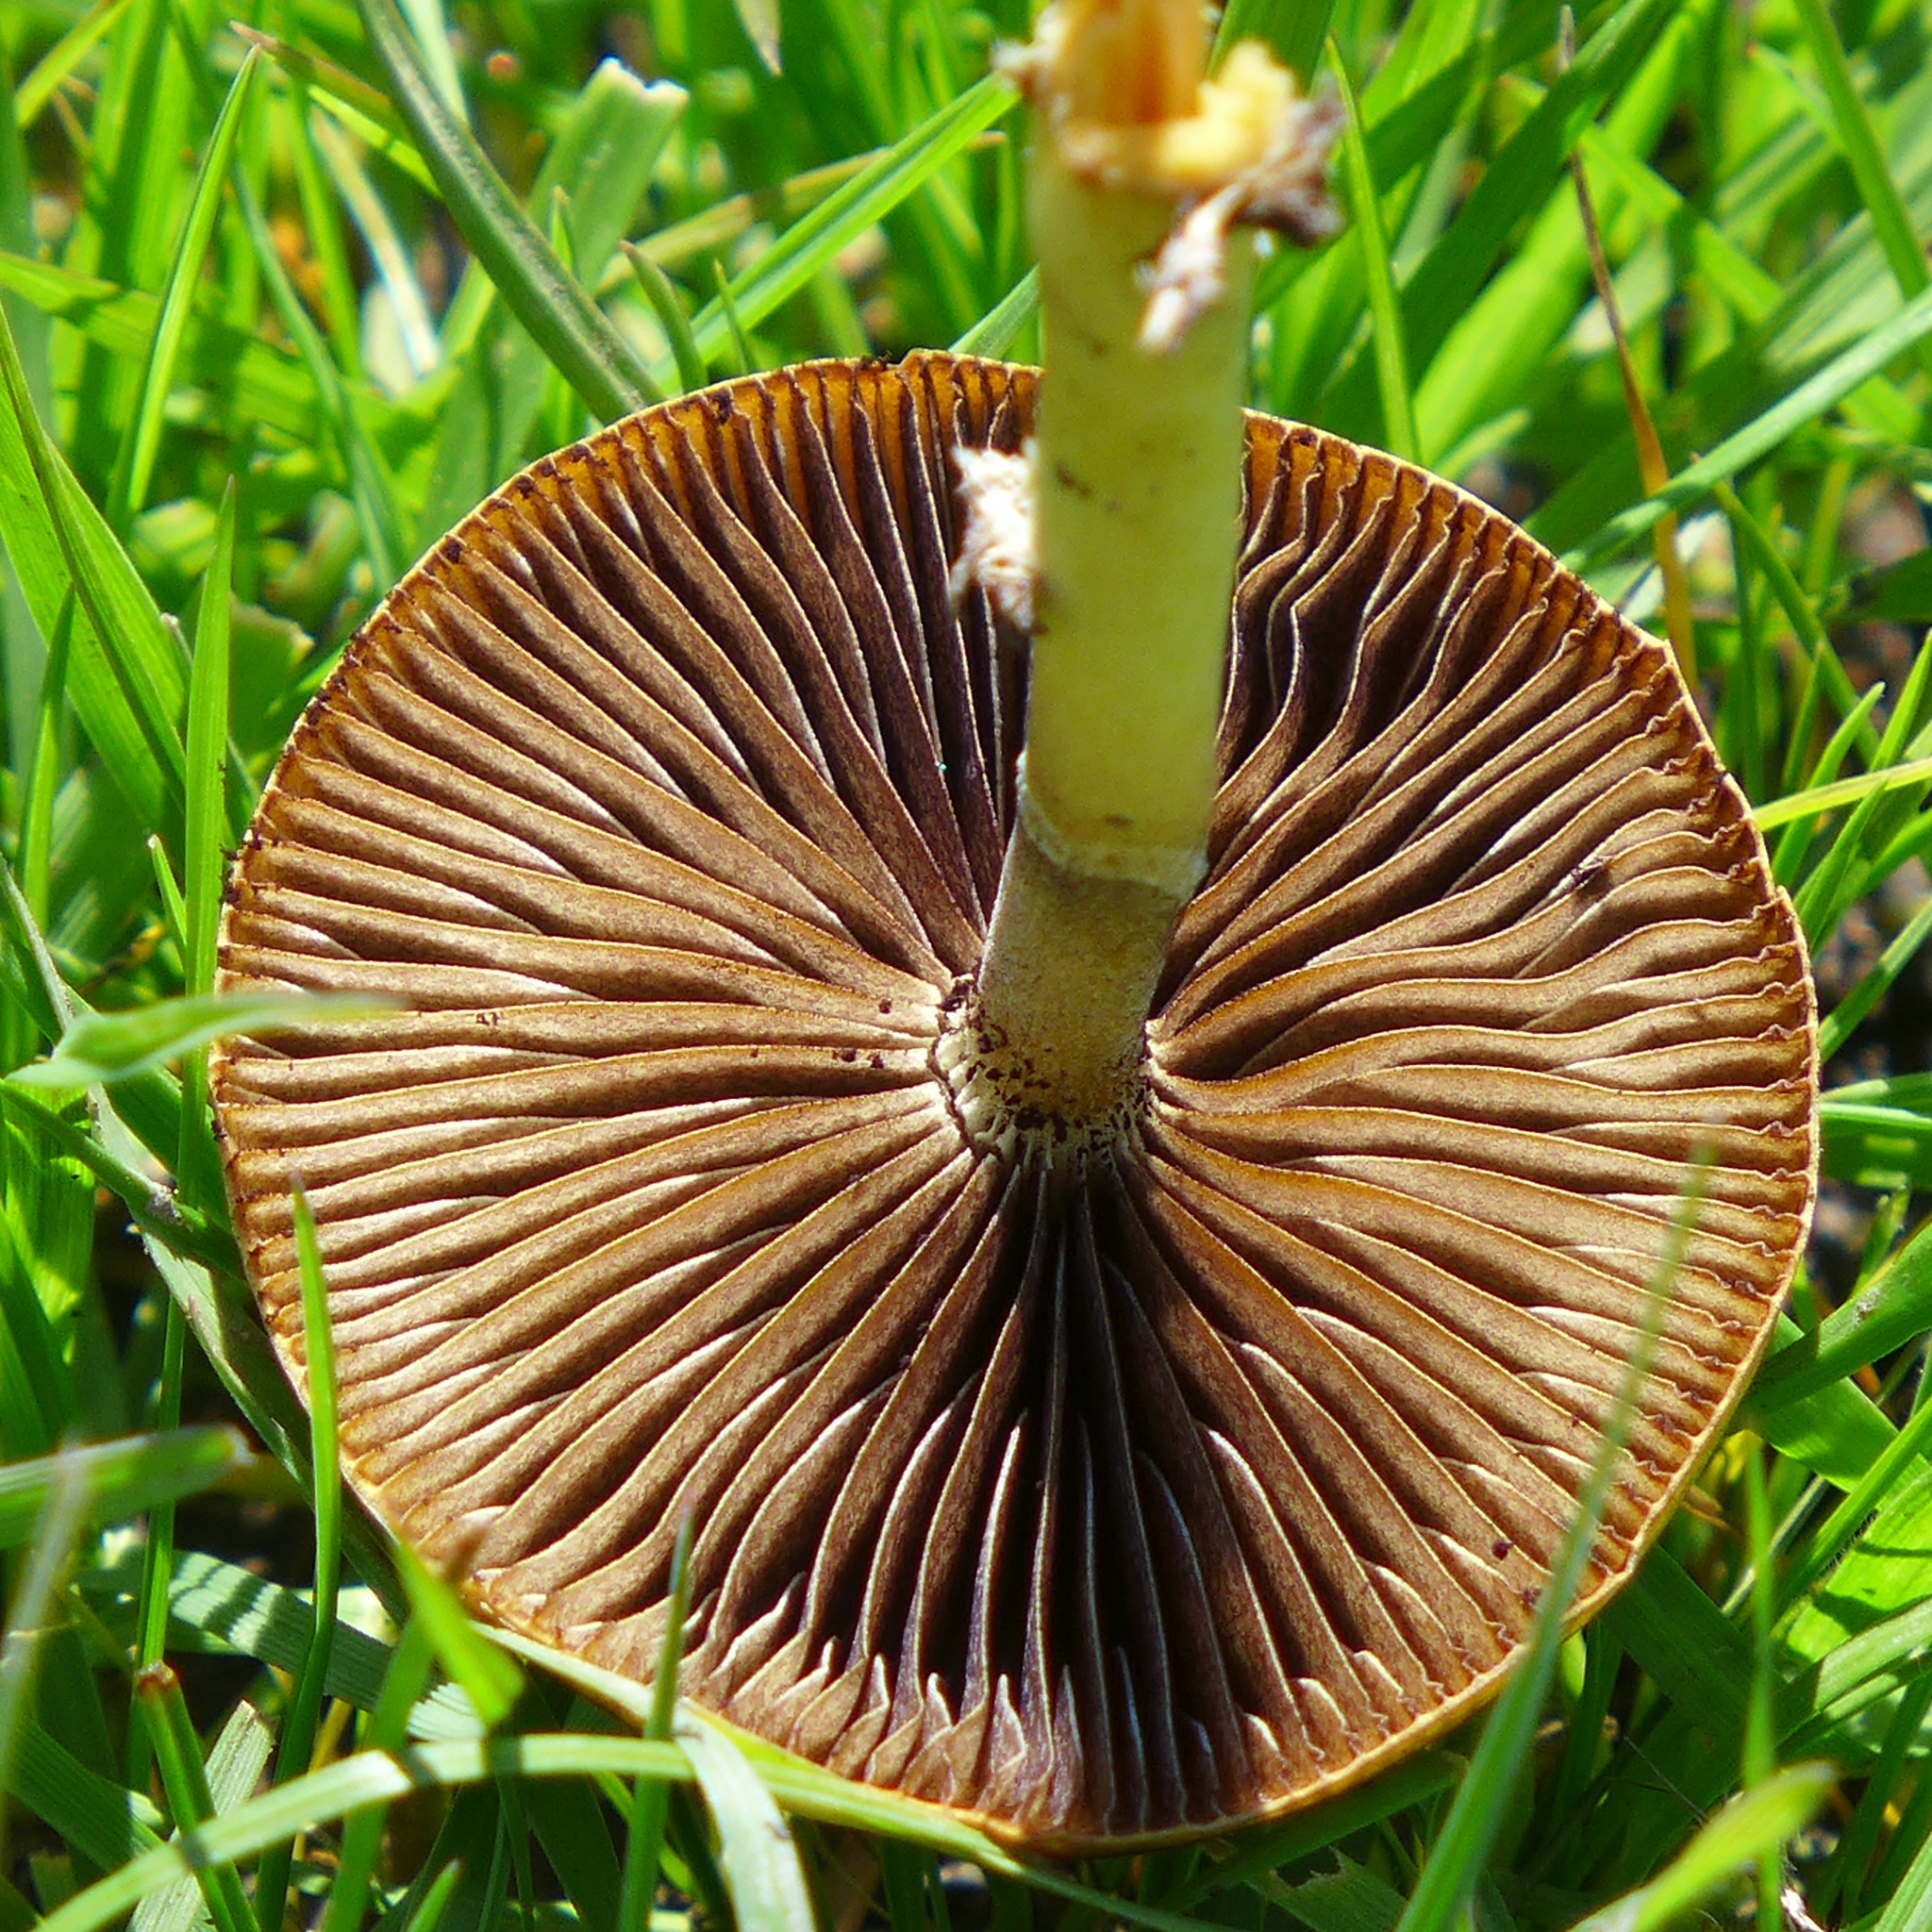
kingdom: Fungi
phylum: Basidiomycota
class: Agaricomycetes
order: Agaricales
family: Strophariaceae
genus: Protostropharia
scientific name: Protostropharia semiglobata
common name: Dung roundhead
